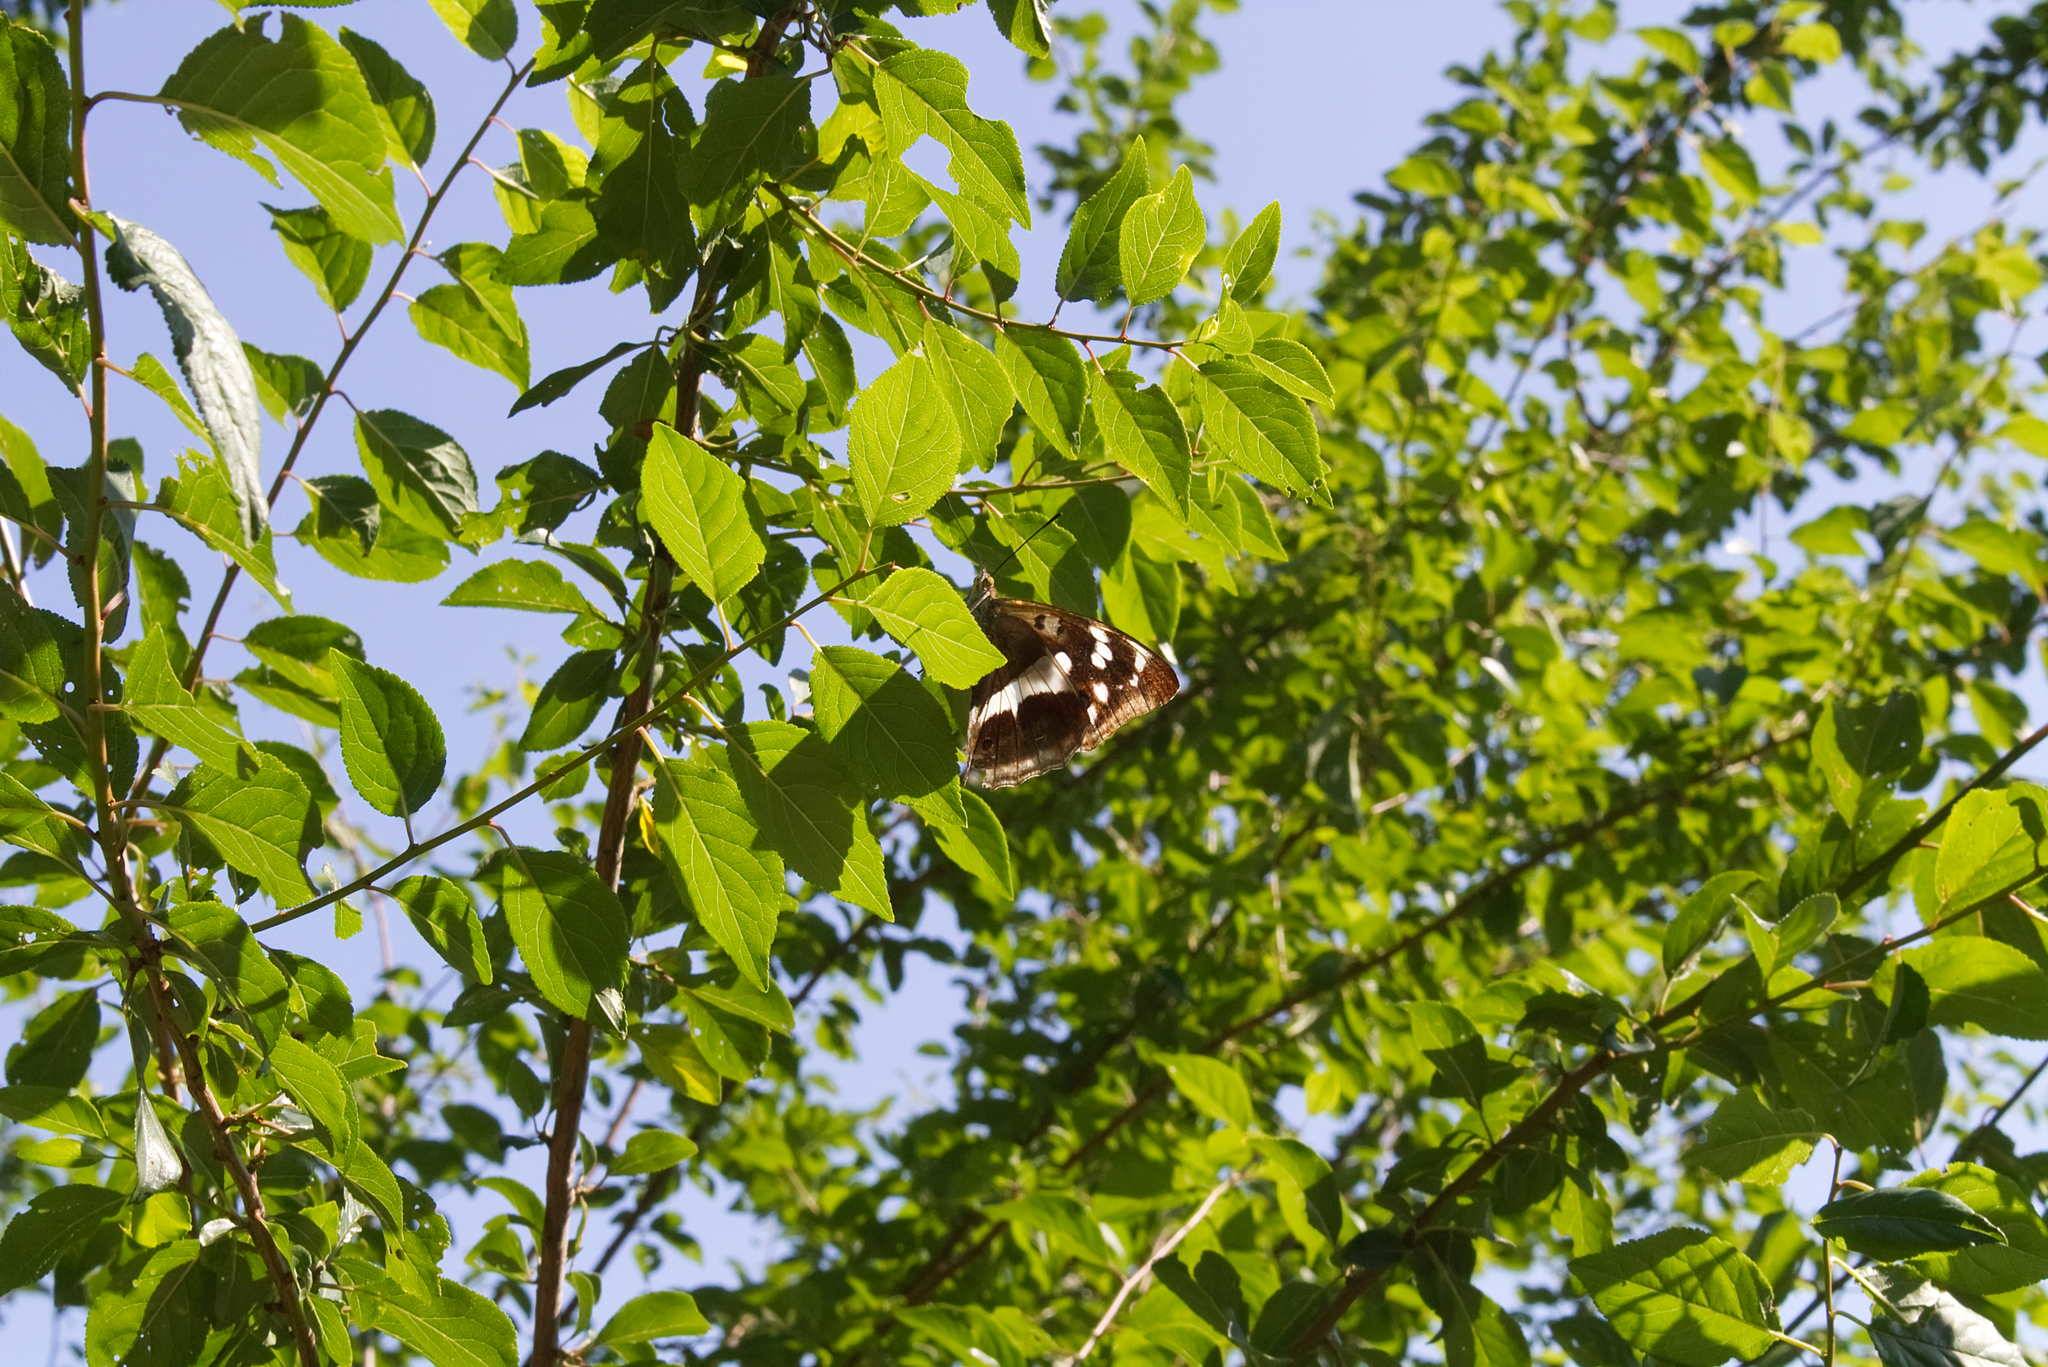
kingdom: Animalia
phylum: Arthropoda
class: Insecta
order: Lepidoptera
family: Nymphalidae
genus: Apatura
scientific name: Apatura iris
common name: Purple emperor
